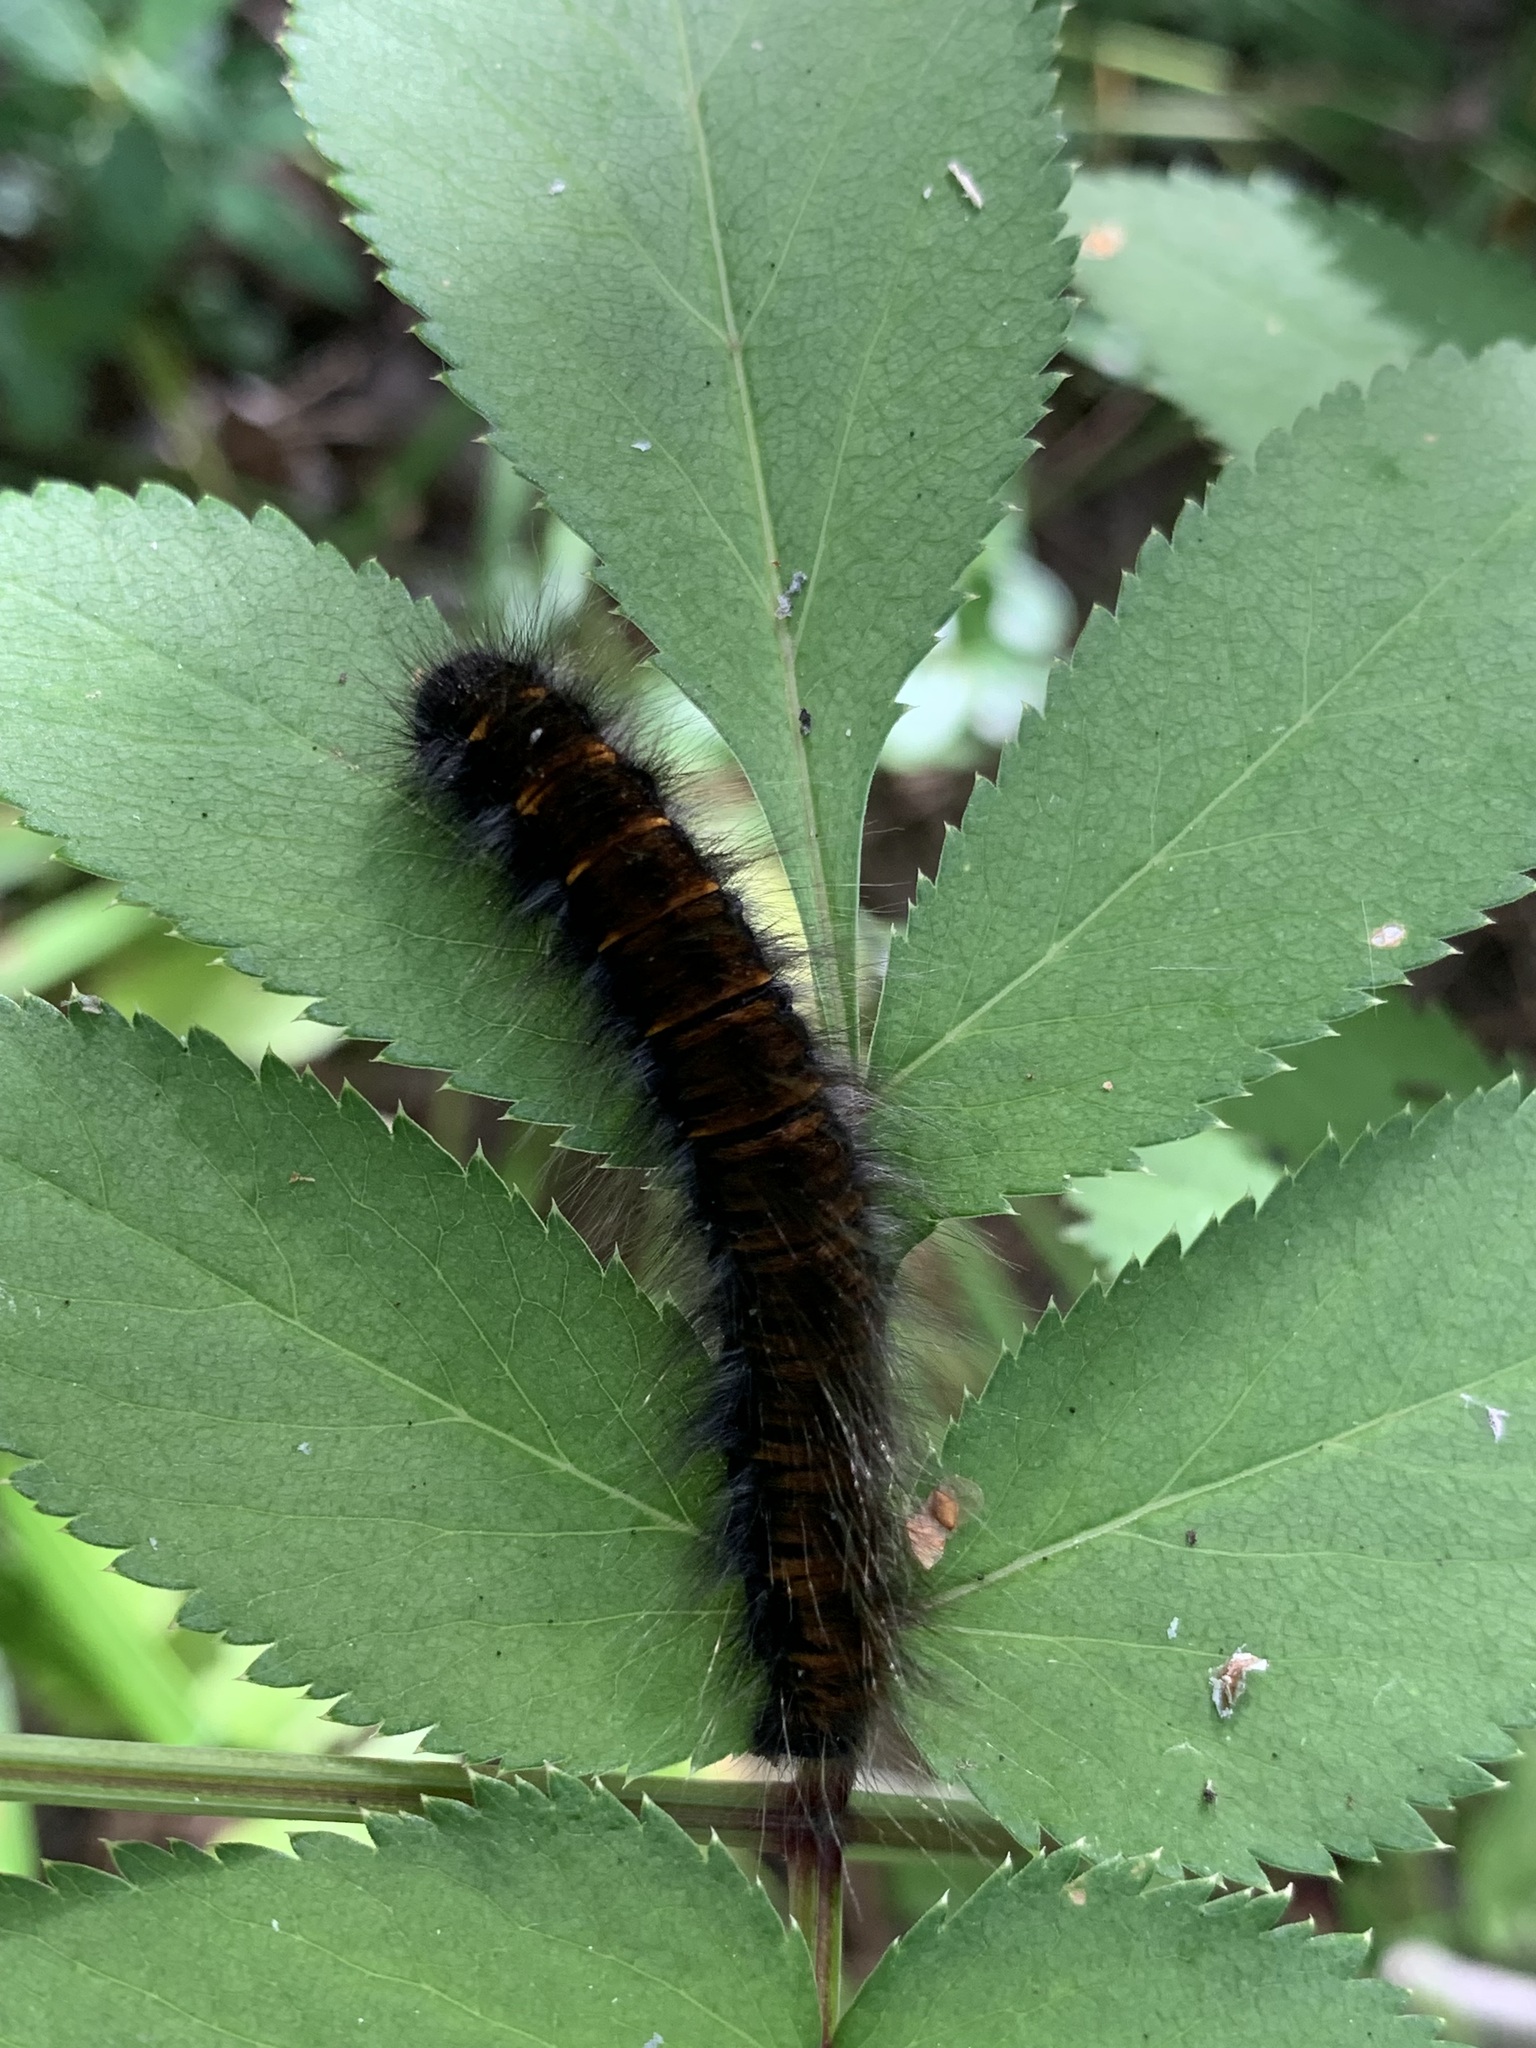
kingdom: Animalia
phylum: Arthropoda
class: Insecta
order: Lepidoptera
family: Lasiocampidae
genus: Macrothylacia
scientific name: Macrothylacia rubi
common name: Fox moth
